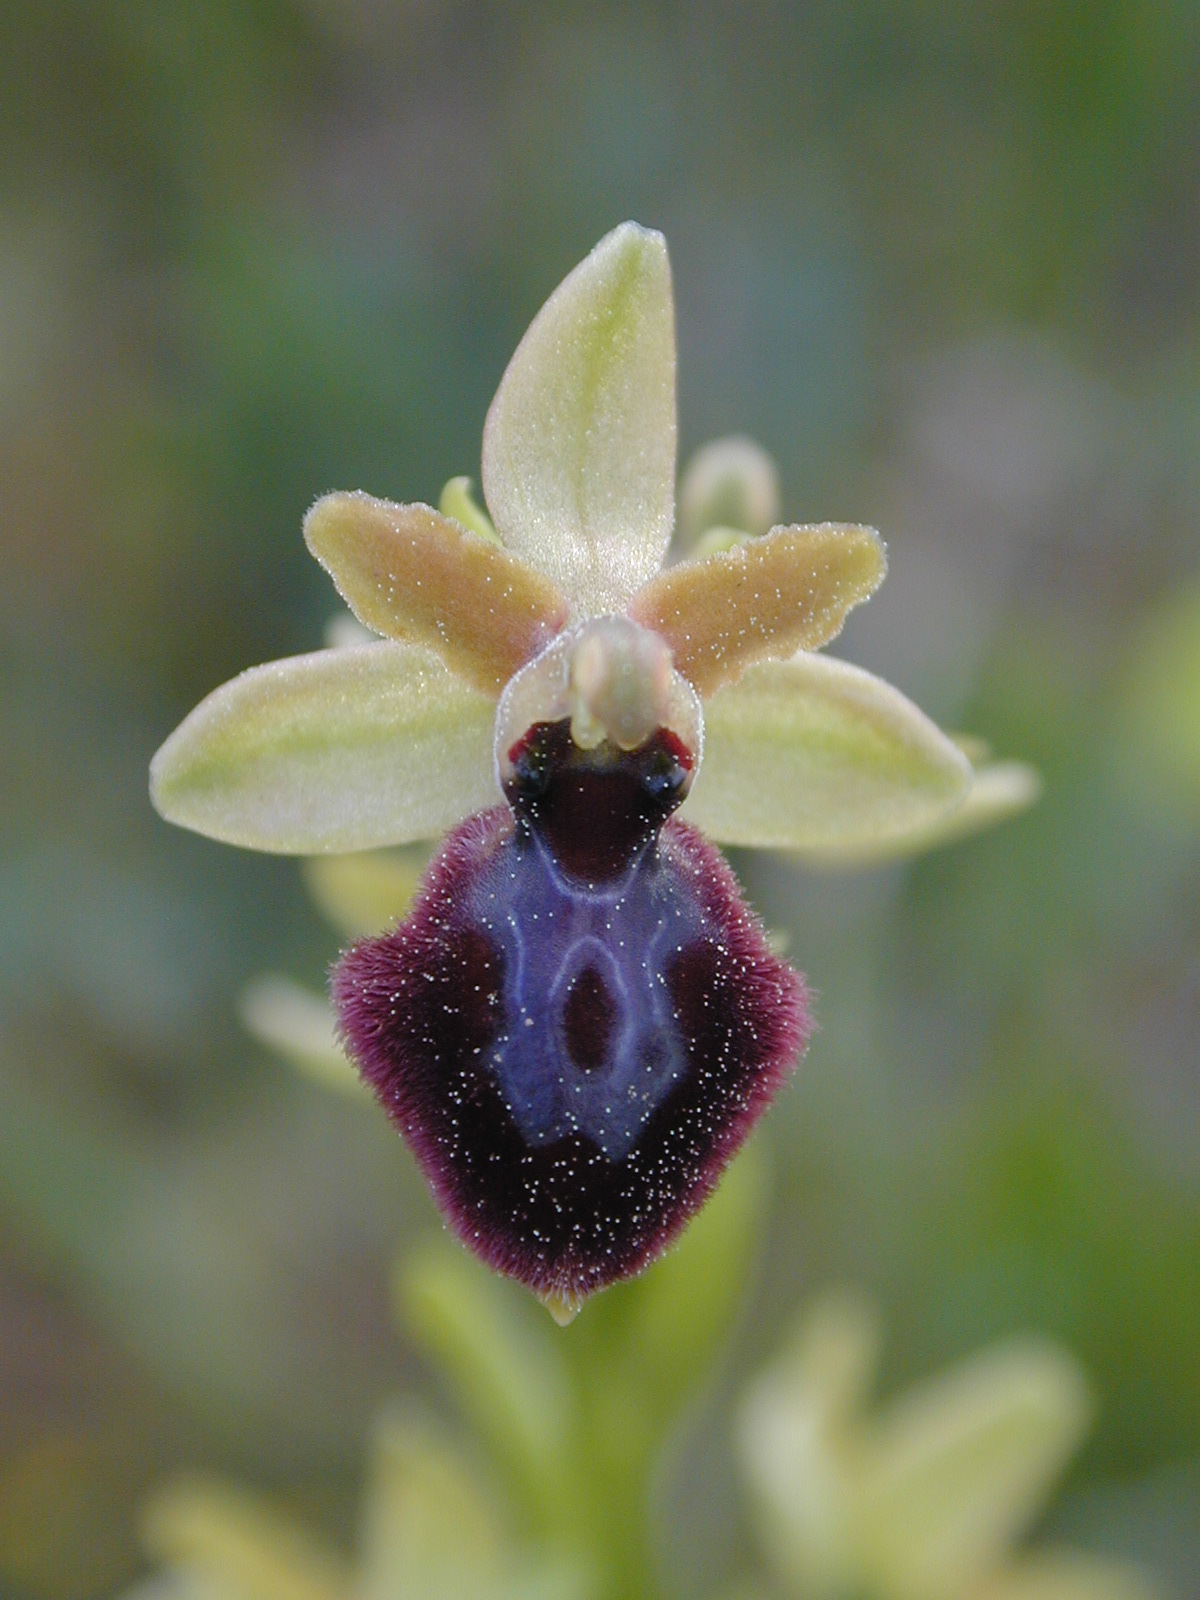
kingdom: Plantae
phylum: Tracheophyta
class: Liliopsida
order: Asparagales
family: Orchidaceae
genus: Ophrys
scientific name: Ophrys sphegodes
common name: Early spider-orchid
